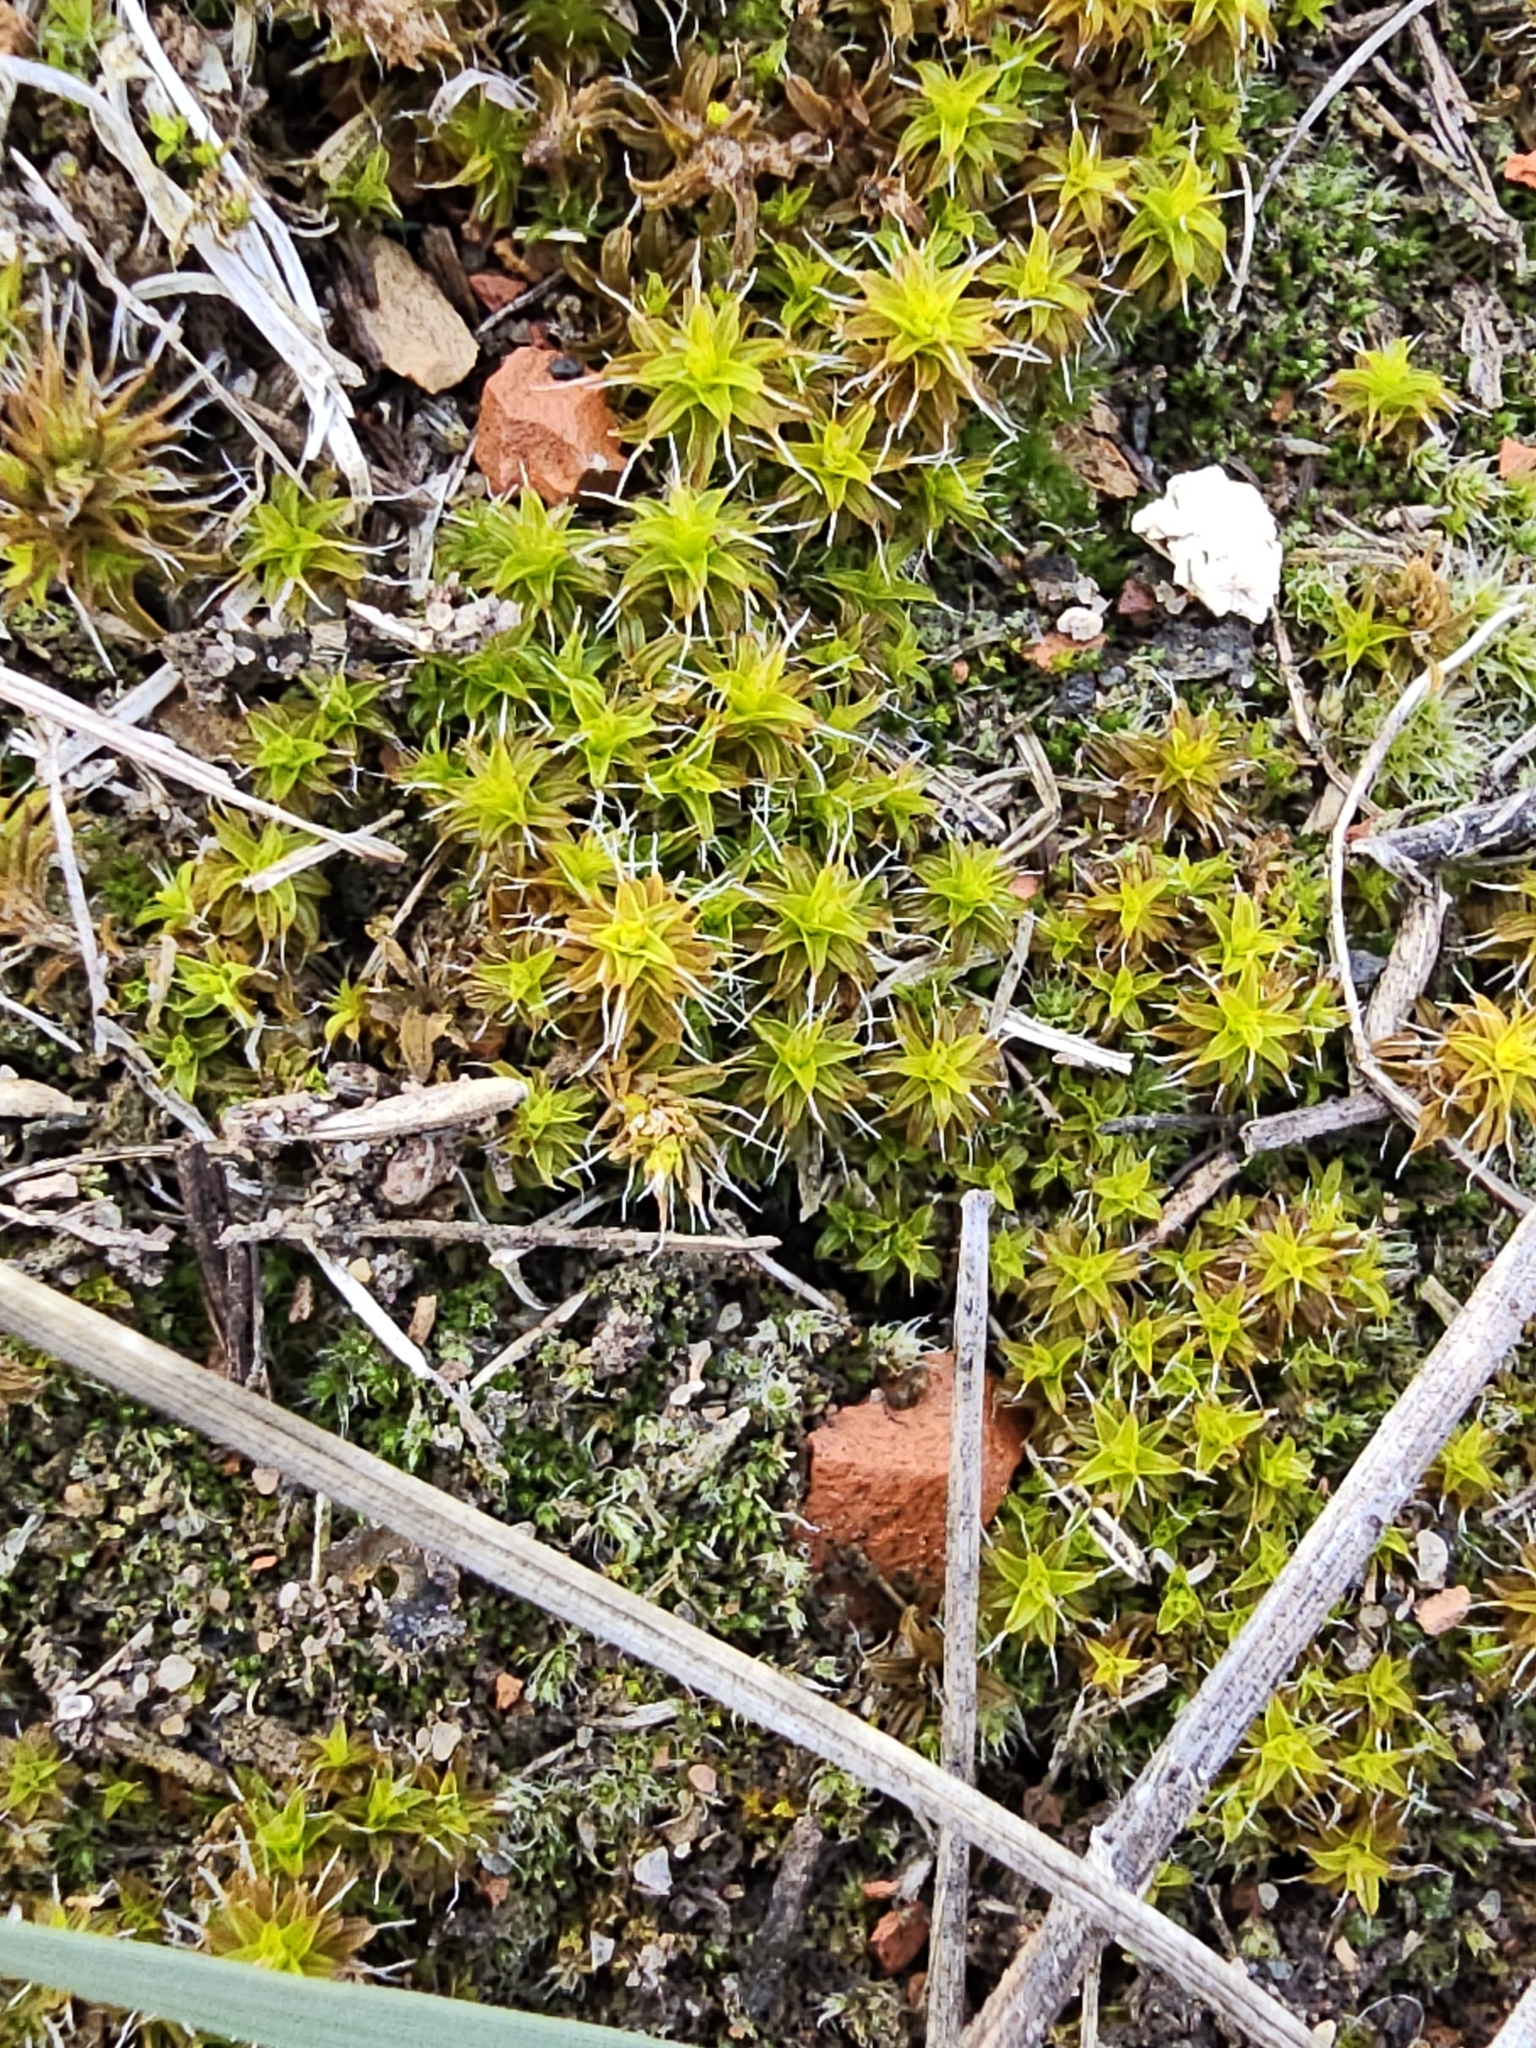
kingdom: Plantae
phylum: Bryophyta
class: Bryopsida
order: Pottiales
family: Pottiaceae
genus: Syntrichia
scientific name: Syntrichia ruralis
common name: Sidewalk screw moss
